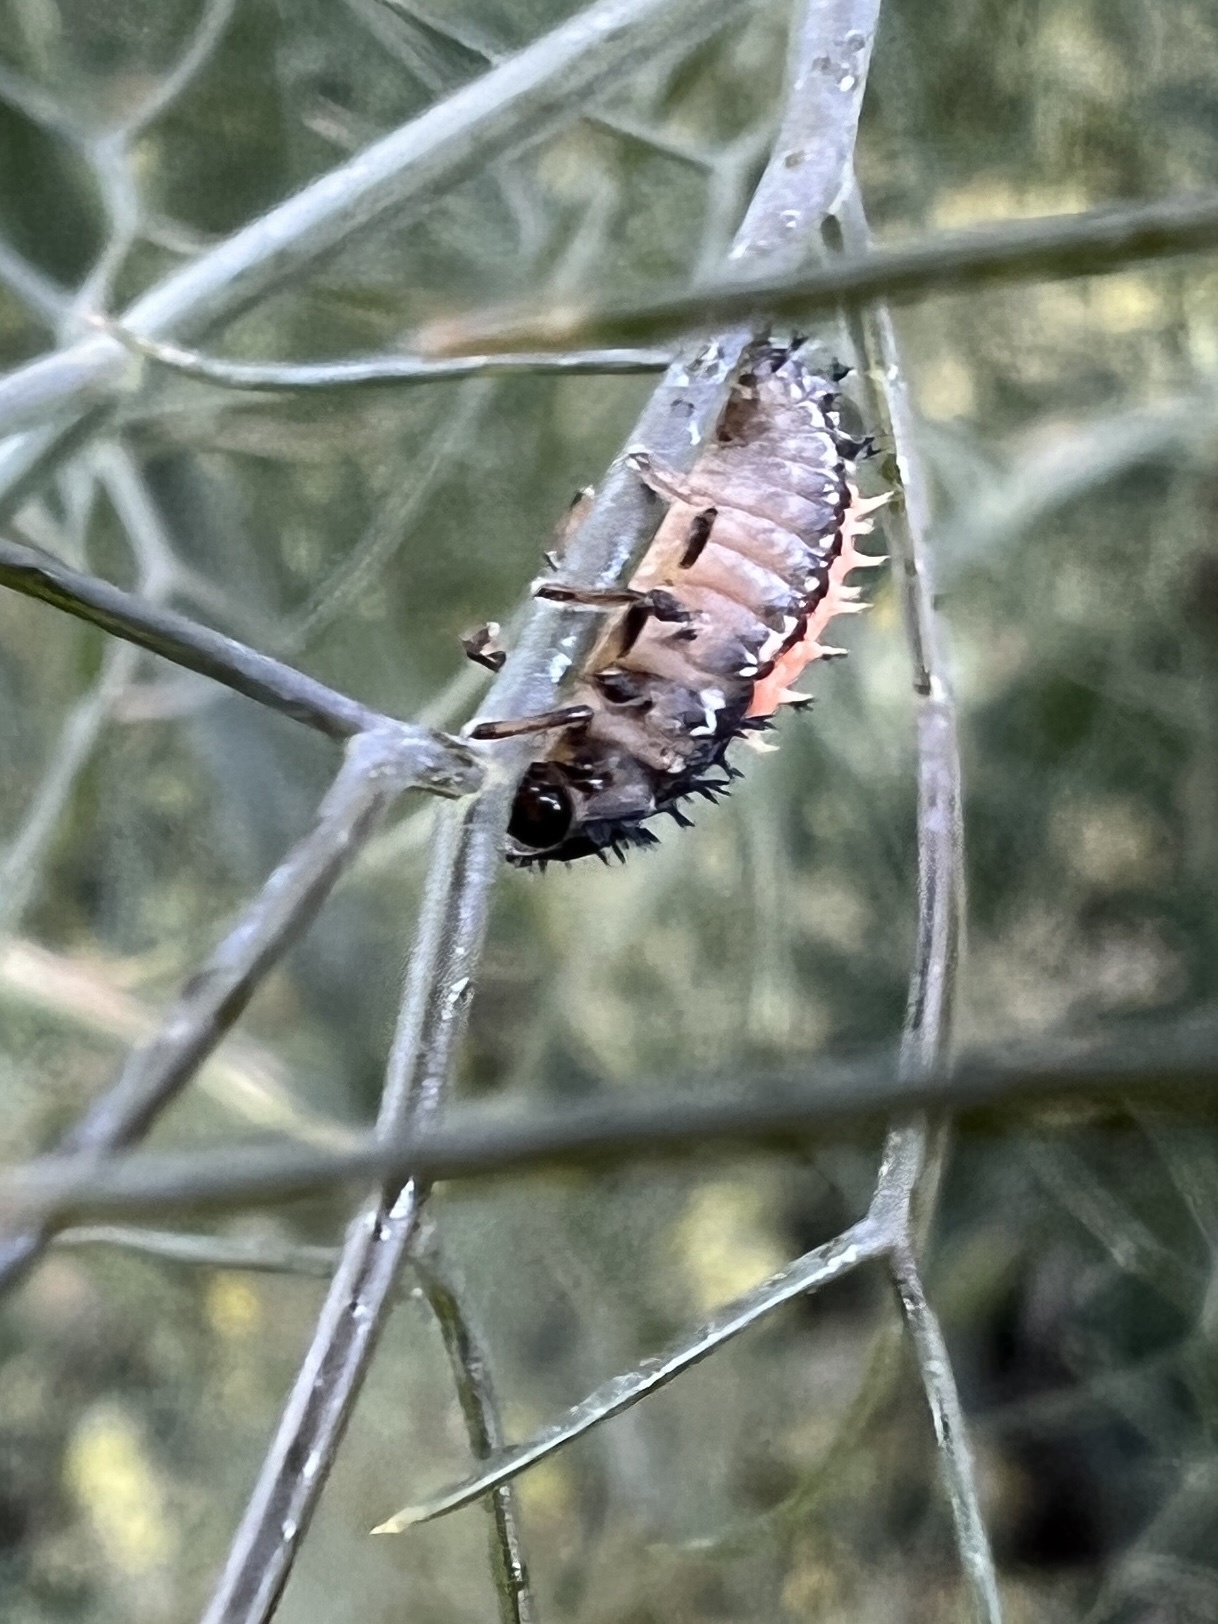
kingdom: Animalia
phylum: Arthropoda
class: Insecta
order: Coleoptera
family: Coccinellidae
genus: Harmonia
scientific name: Harmonia axyridis
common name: Harlequin ladybird
